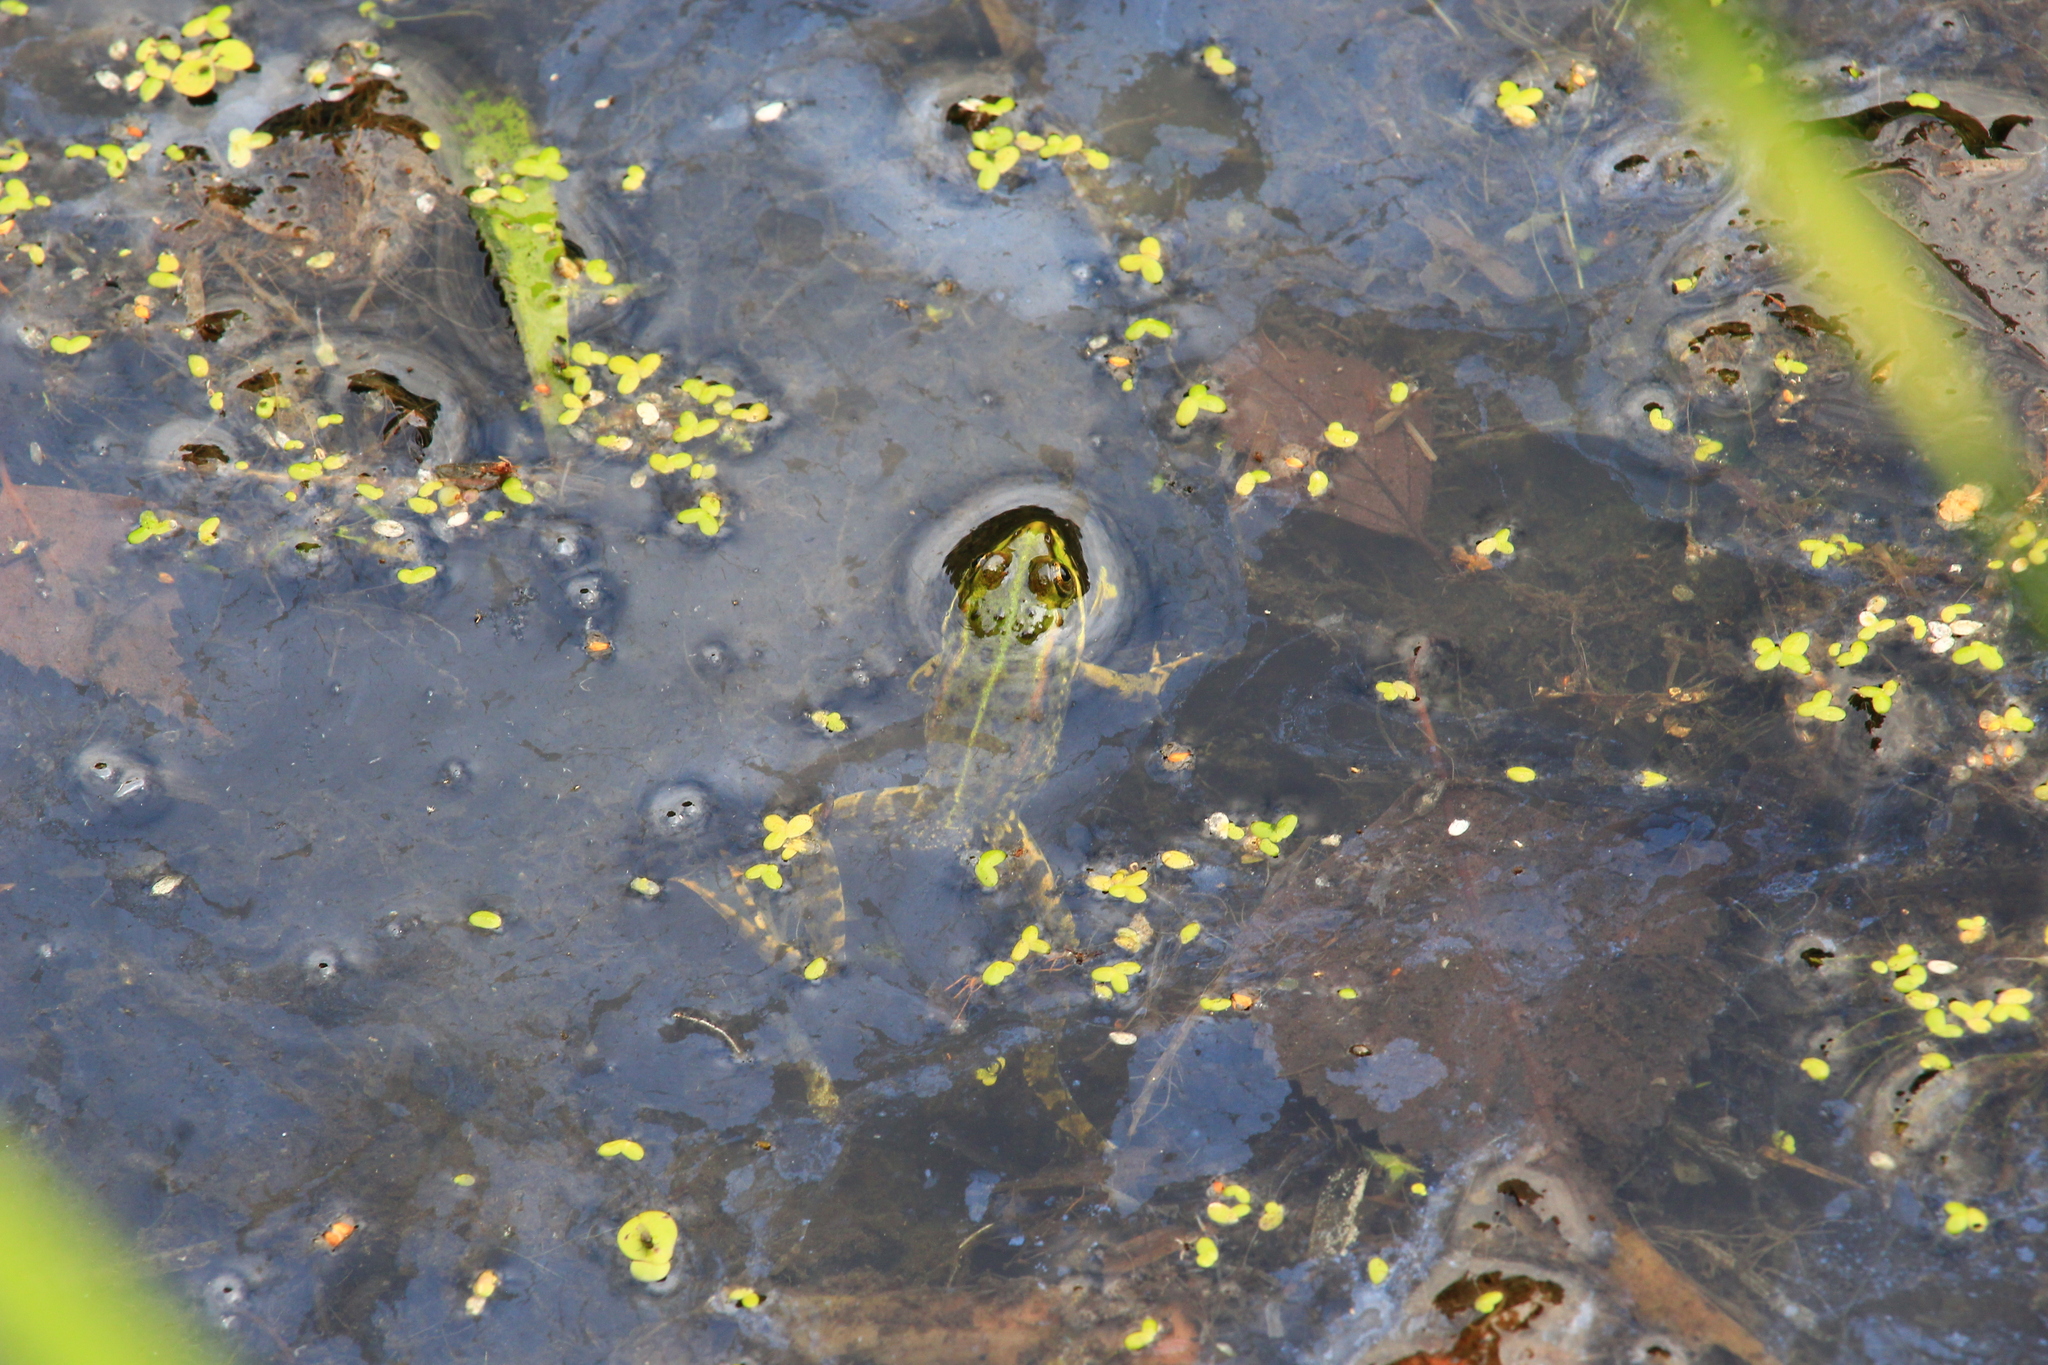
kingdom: Animalia
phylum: Chordata
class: Amphibia
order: Anura
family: Ranidae
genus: Pelophylax
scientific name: Pelophylax ridibundus
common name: Marsh frog
